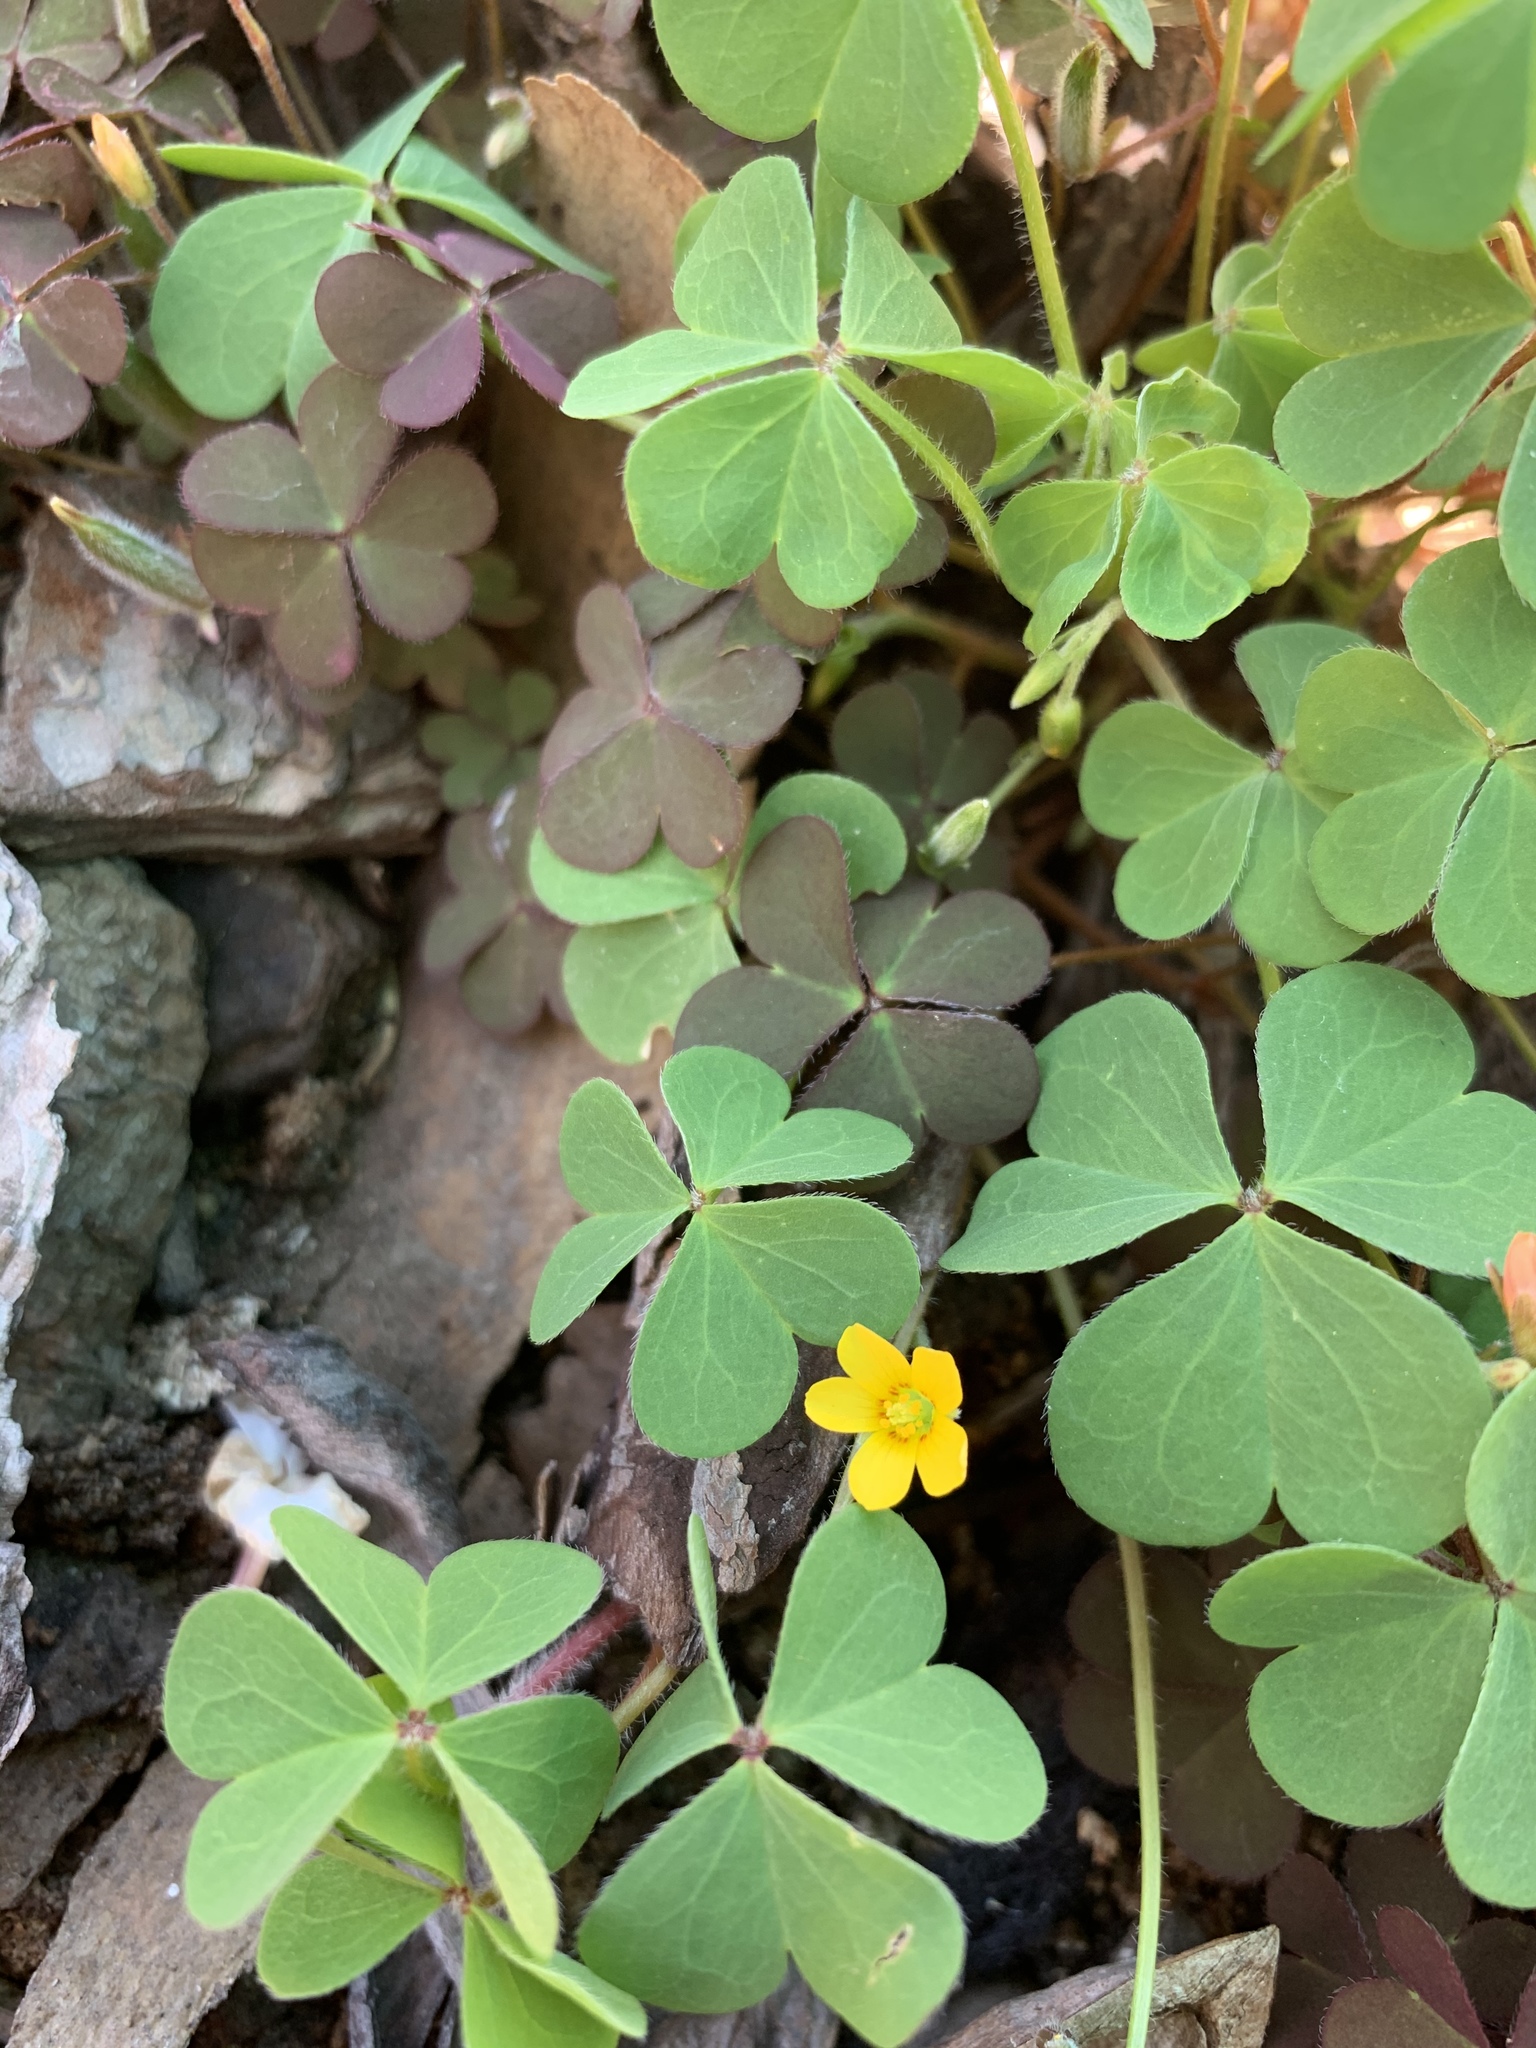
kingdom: Plantae
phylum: Tracheophyta
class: Magnoliopsida
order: Oxalidales
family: Oxalidaceae
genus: Oxalis
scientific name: Oxalis corniculata
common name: Procumbent yellow-sorrel
